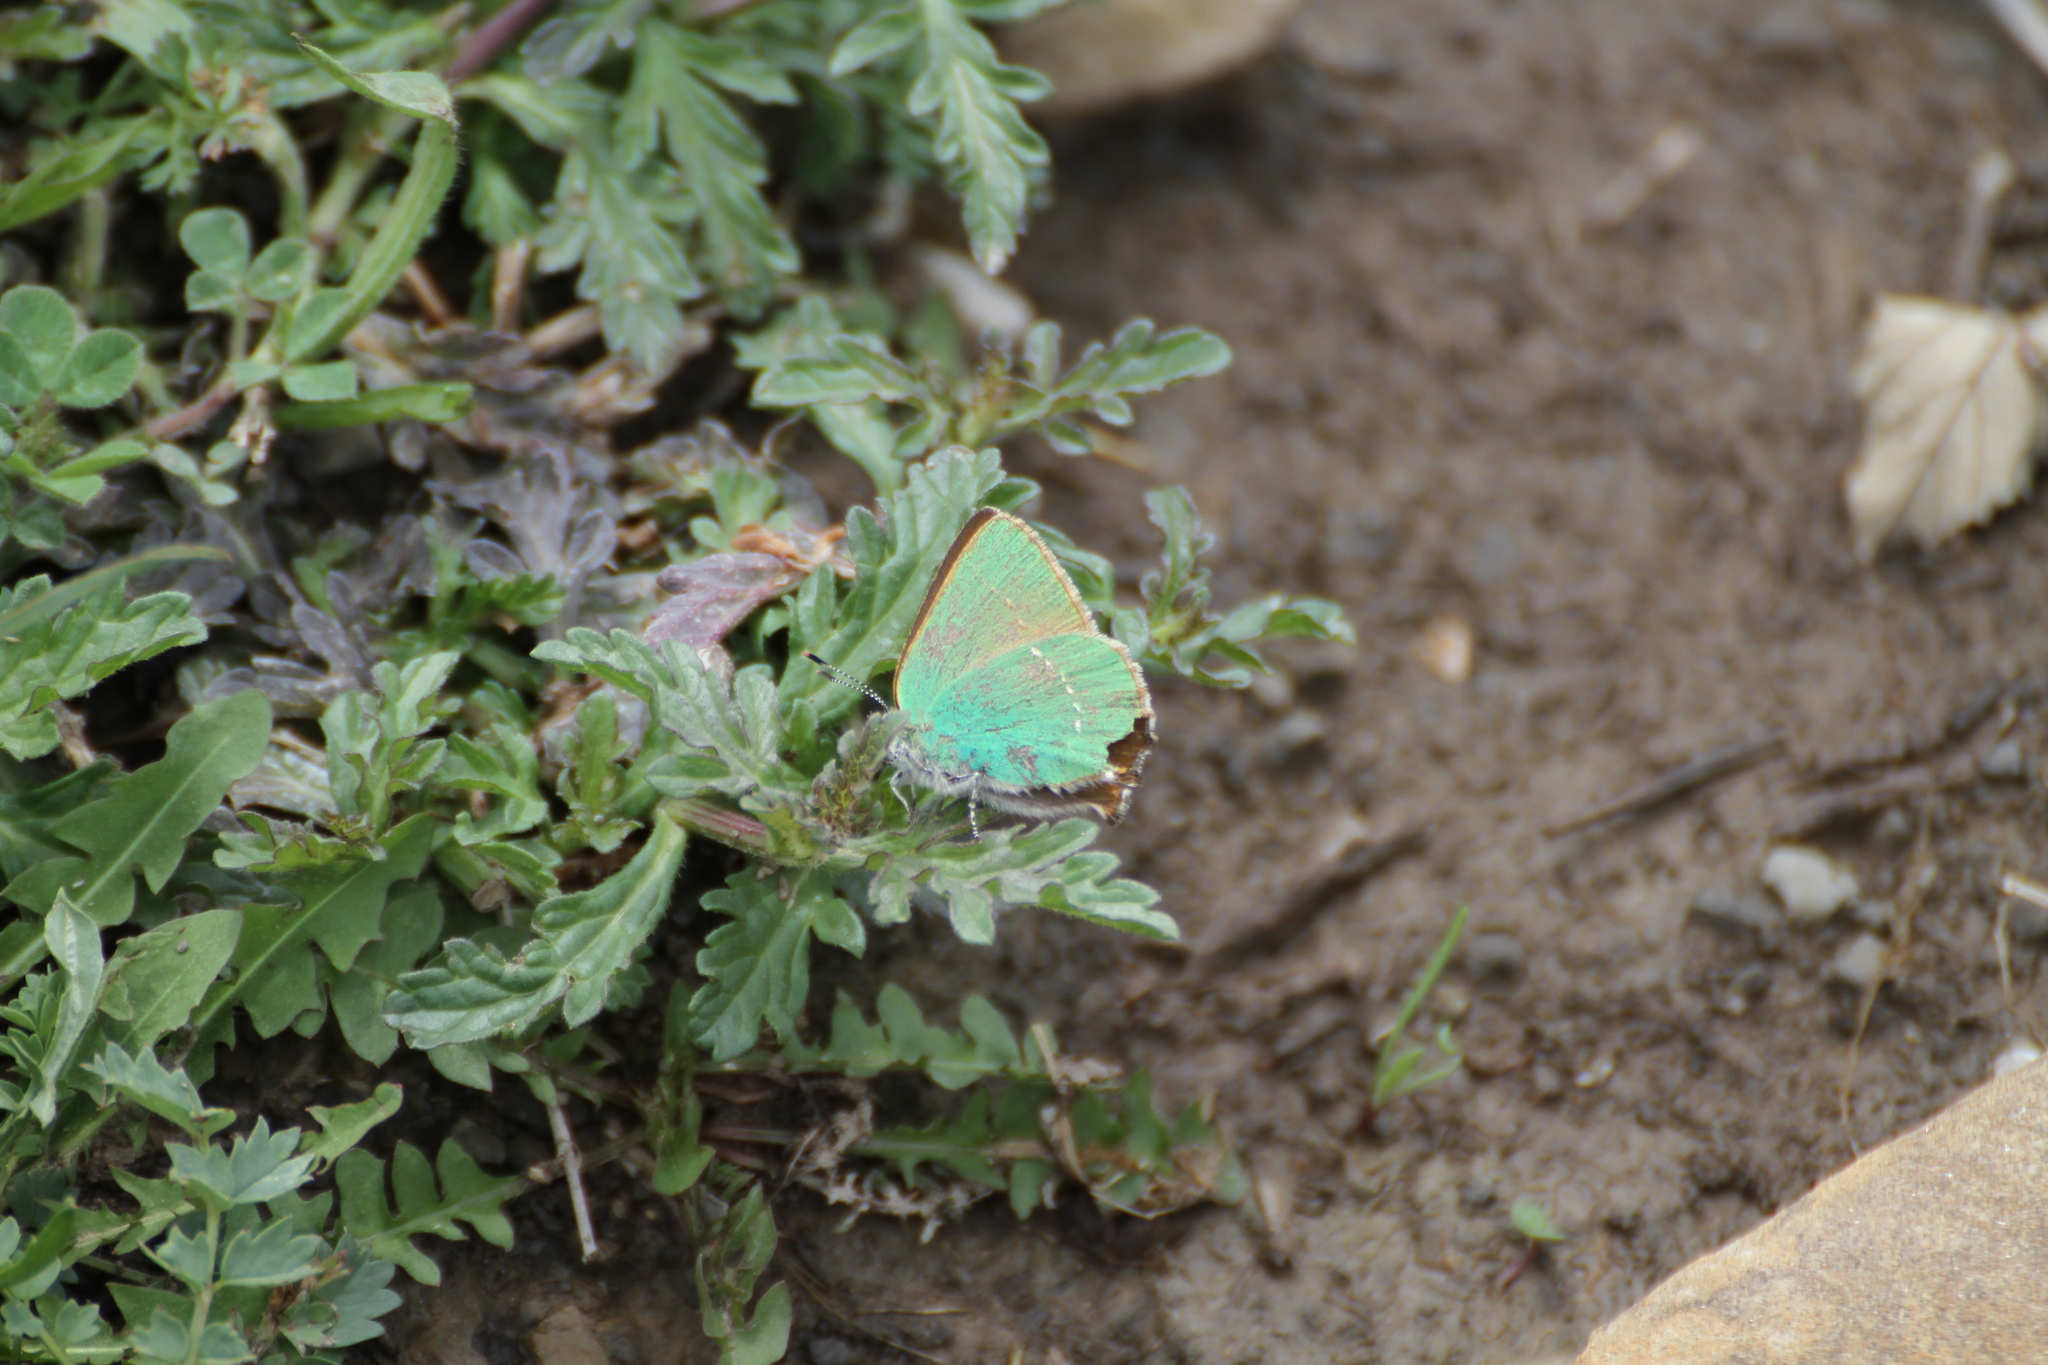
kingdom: Animalia
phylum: Arthropoda
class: Insecta
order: Lepidoptera
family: Lycaenidae
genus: Callophrys
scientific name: Callophrys rubi
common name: Green hairstreak
